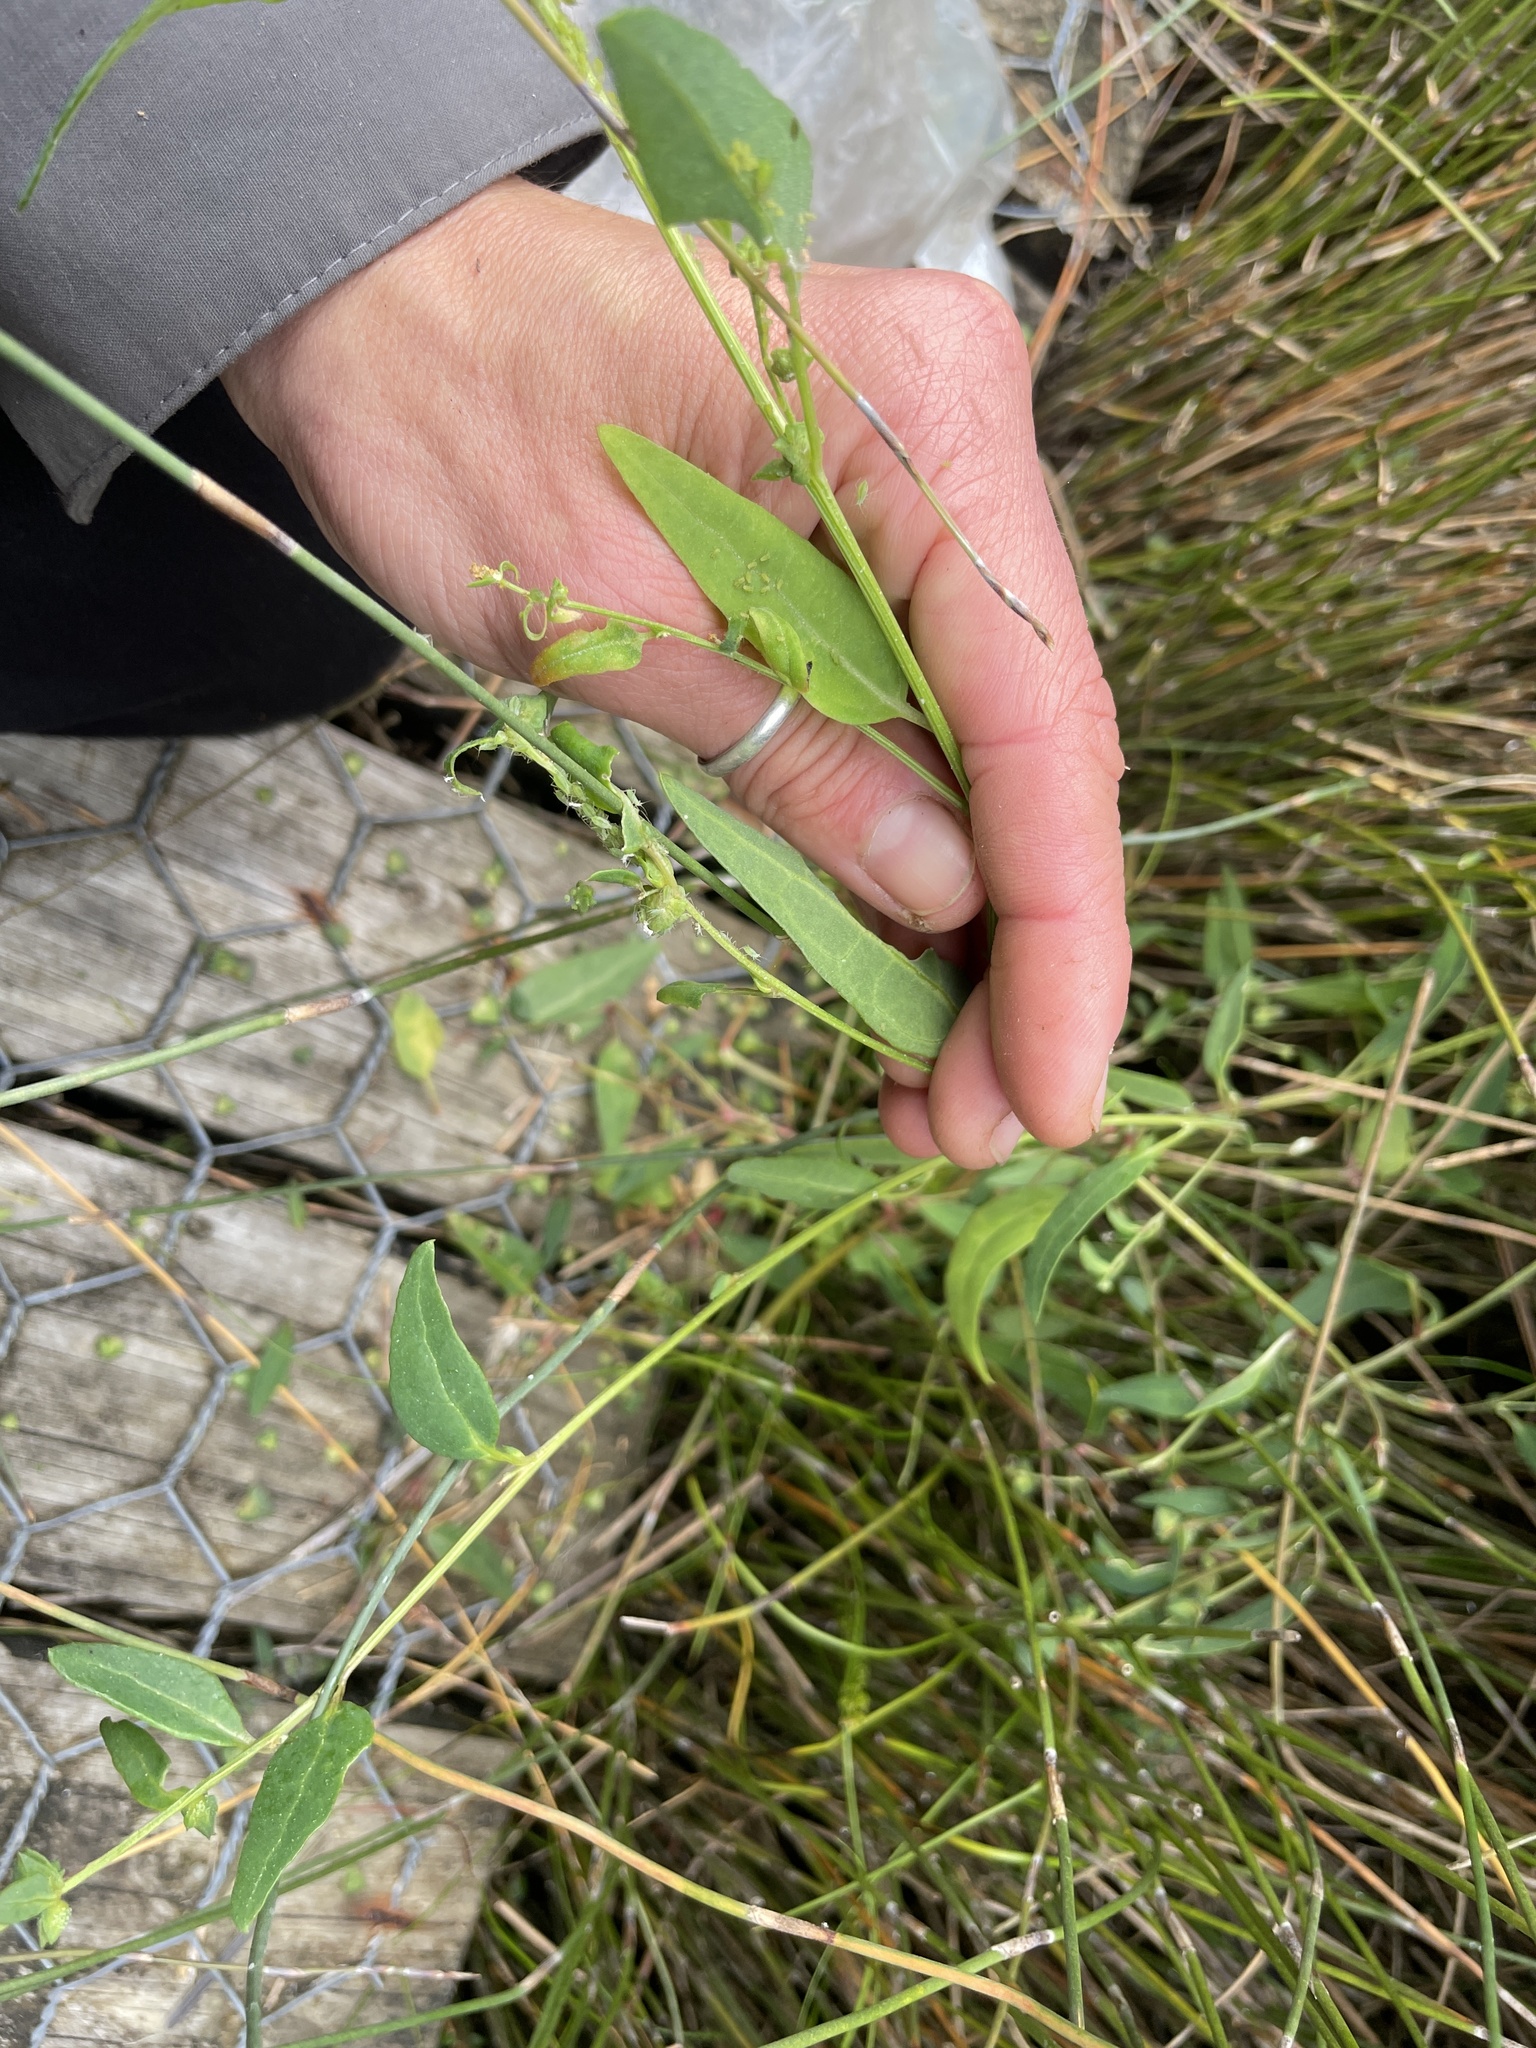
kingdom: Plantae
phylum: Tracheophyta
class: Magnoliopsida
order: Caryophyllales
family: Amaranthaceae
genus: Atriplex
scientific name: Atriplex prostrata
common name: Spear-leaved orache
